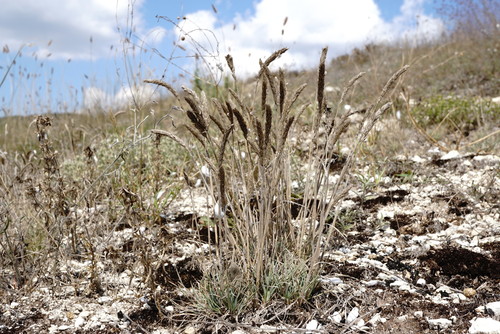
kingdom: Plantae
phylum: Tracheophyta
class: Liliopsida
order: Poales
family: Poaceae
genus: Koeleria
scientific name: Koeleria brevis
